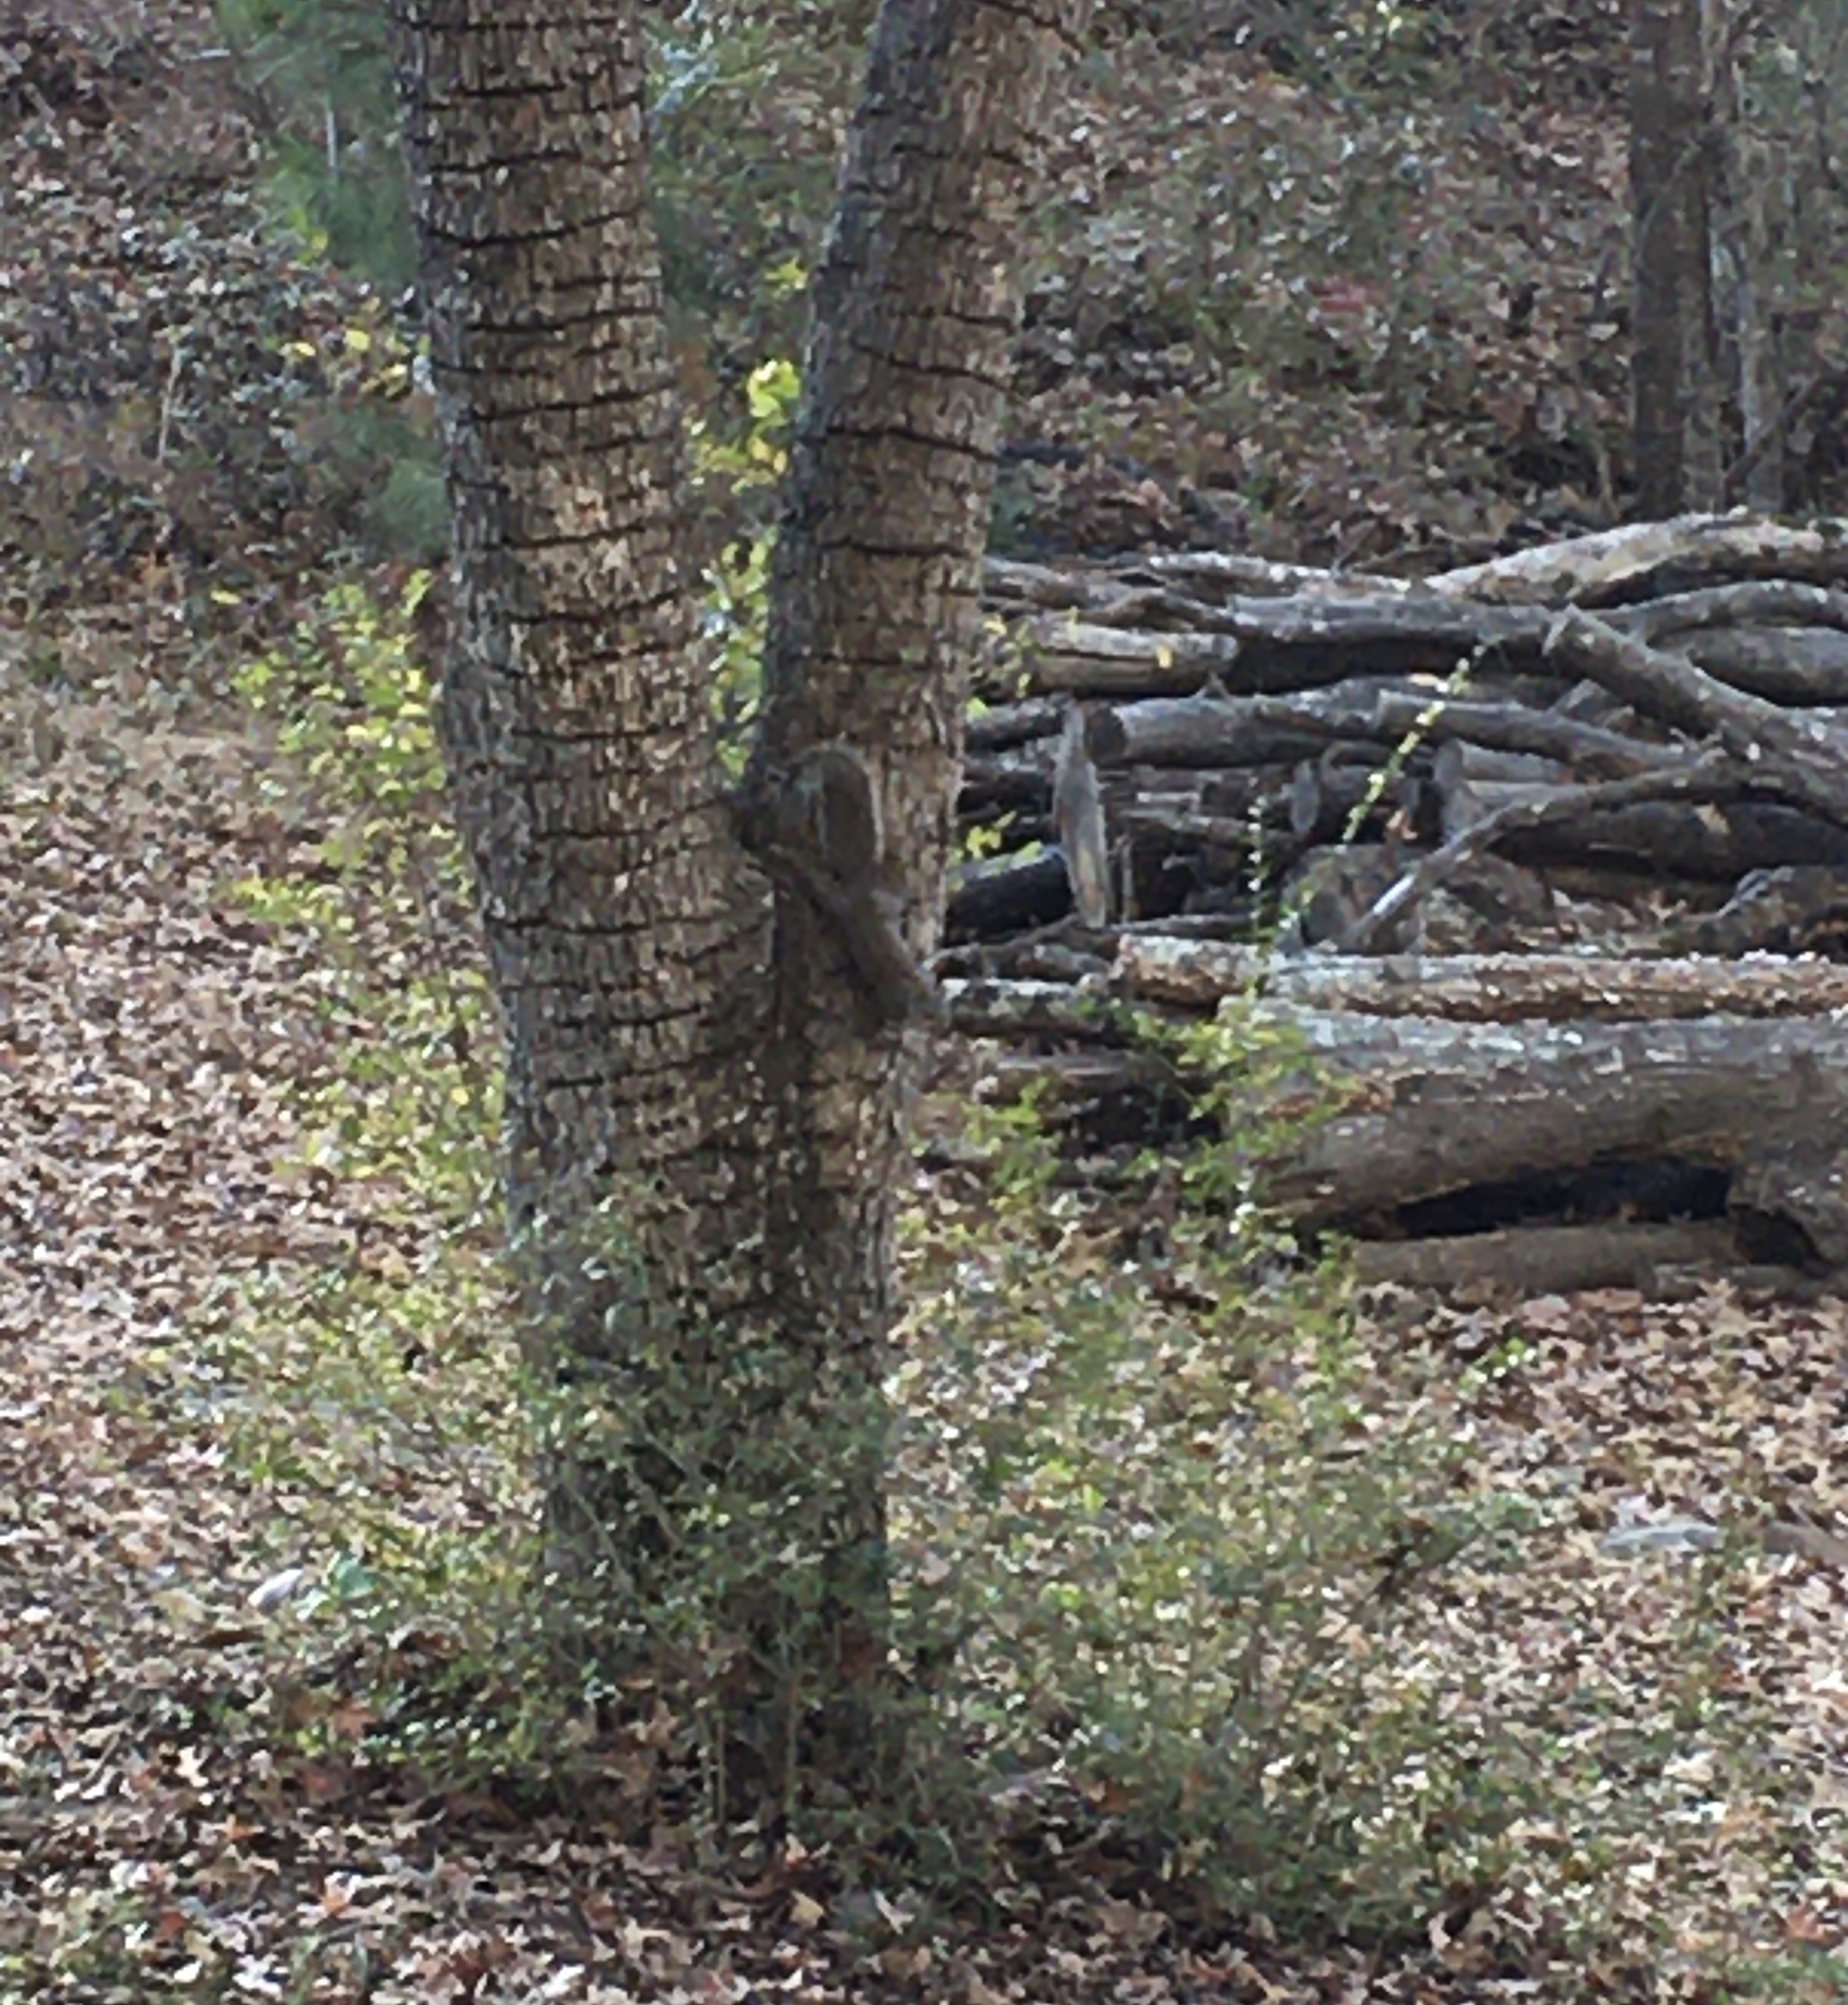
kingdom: Animalia
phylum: Chordata
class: Mammalia
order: Rodentia
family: Sciuridae
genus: Sciurus
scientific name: Sciurus carolinensis
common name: Eastern gray squirrel
